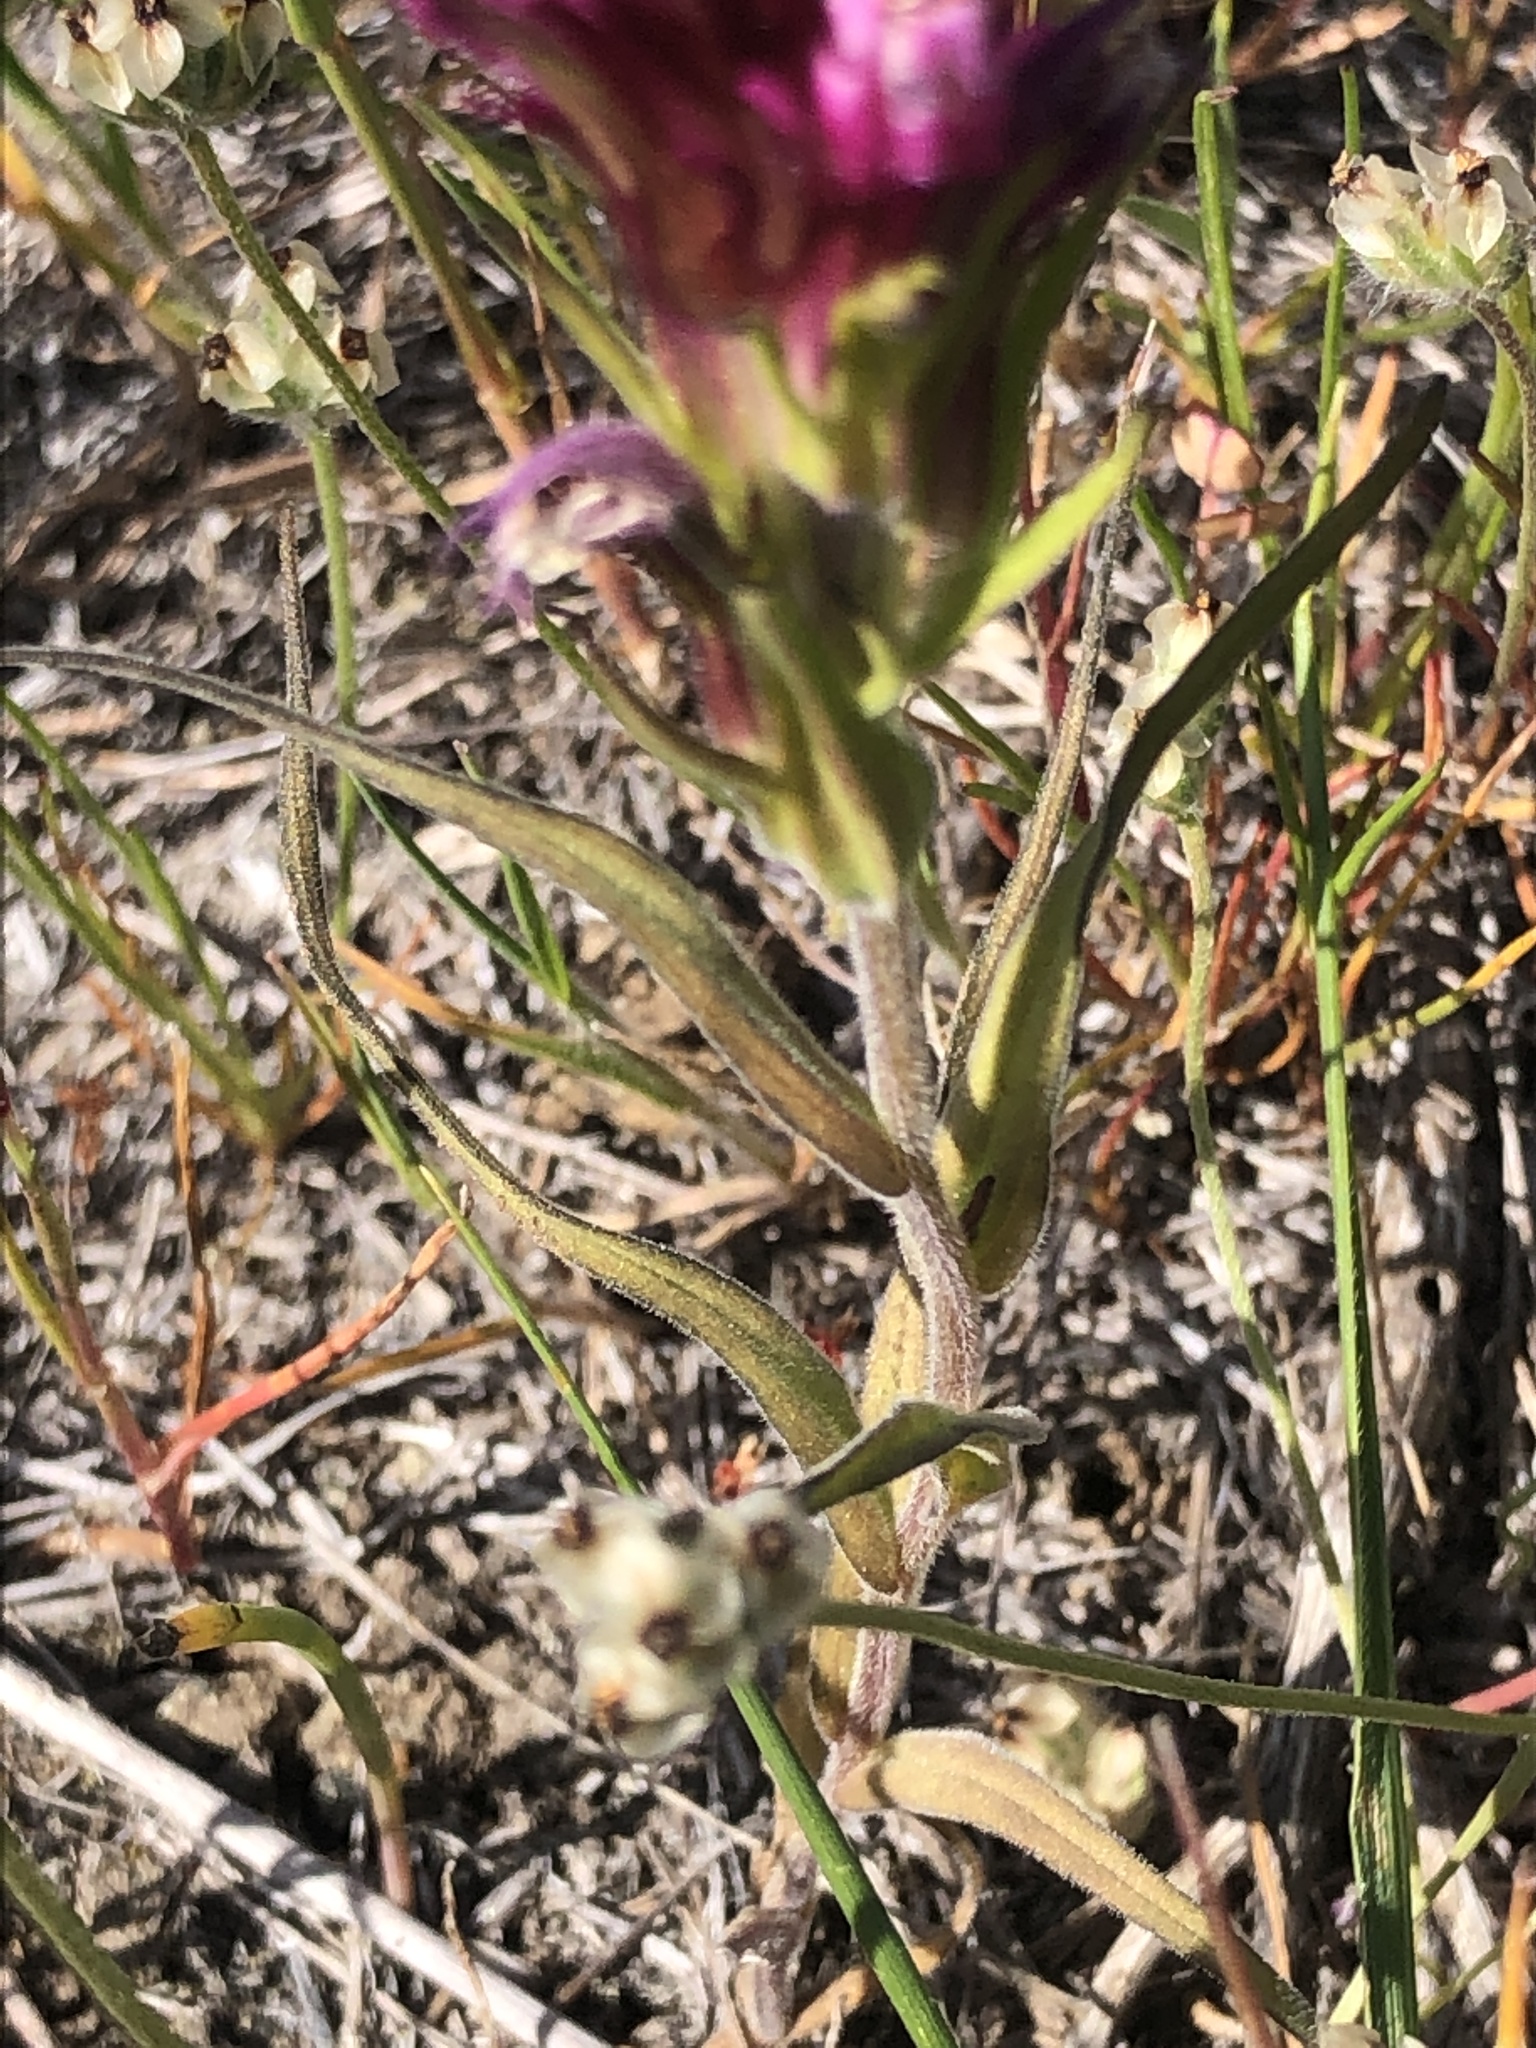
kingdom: Plantae
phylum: Tracheophyta
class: Magnoliopsida
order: Lamiales
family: Orobanchaceae
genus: Castilleja
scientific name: Castilleja densiflora
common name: Dense-flower indian paintbrush
